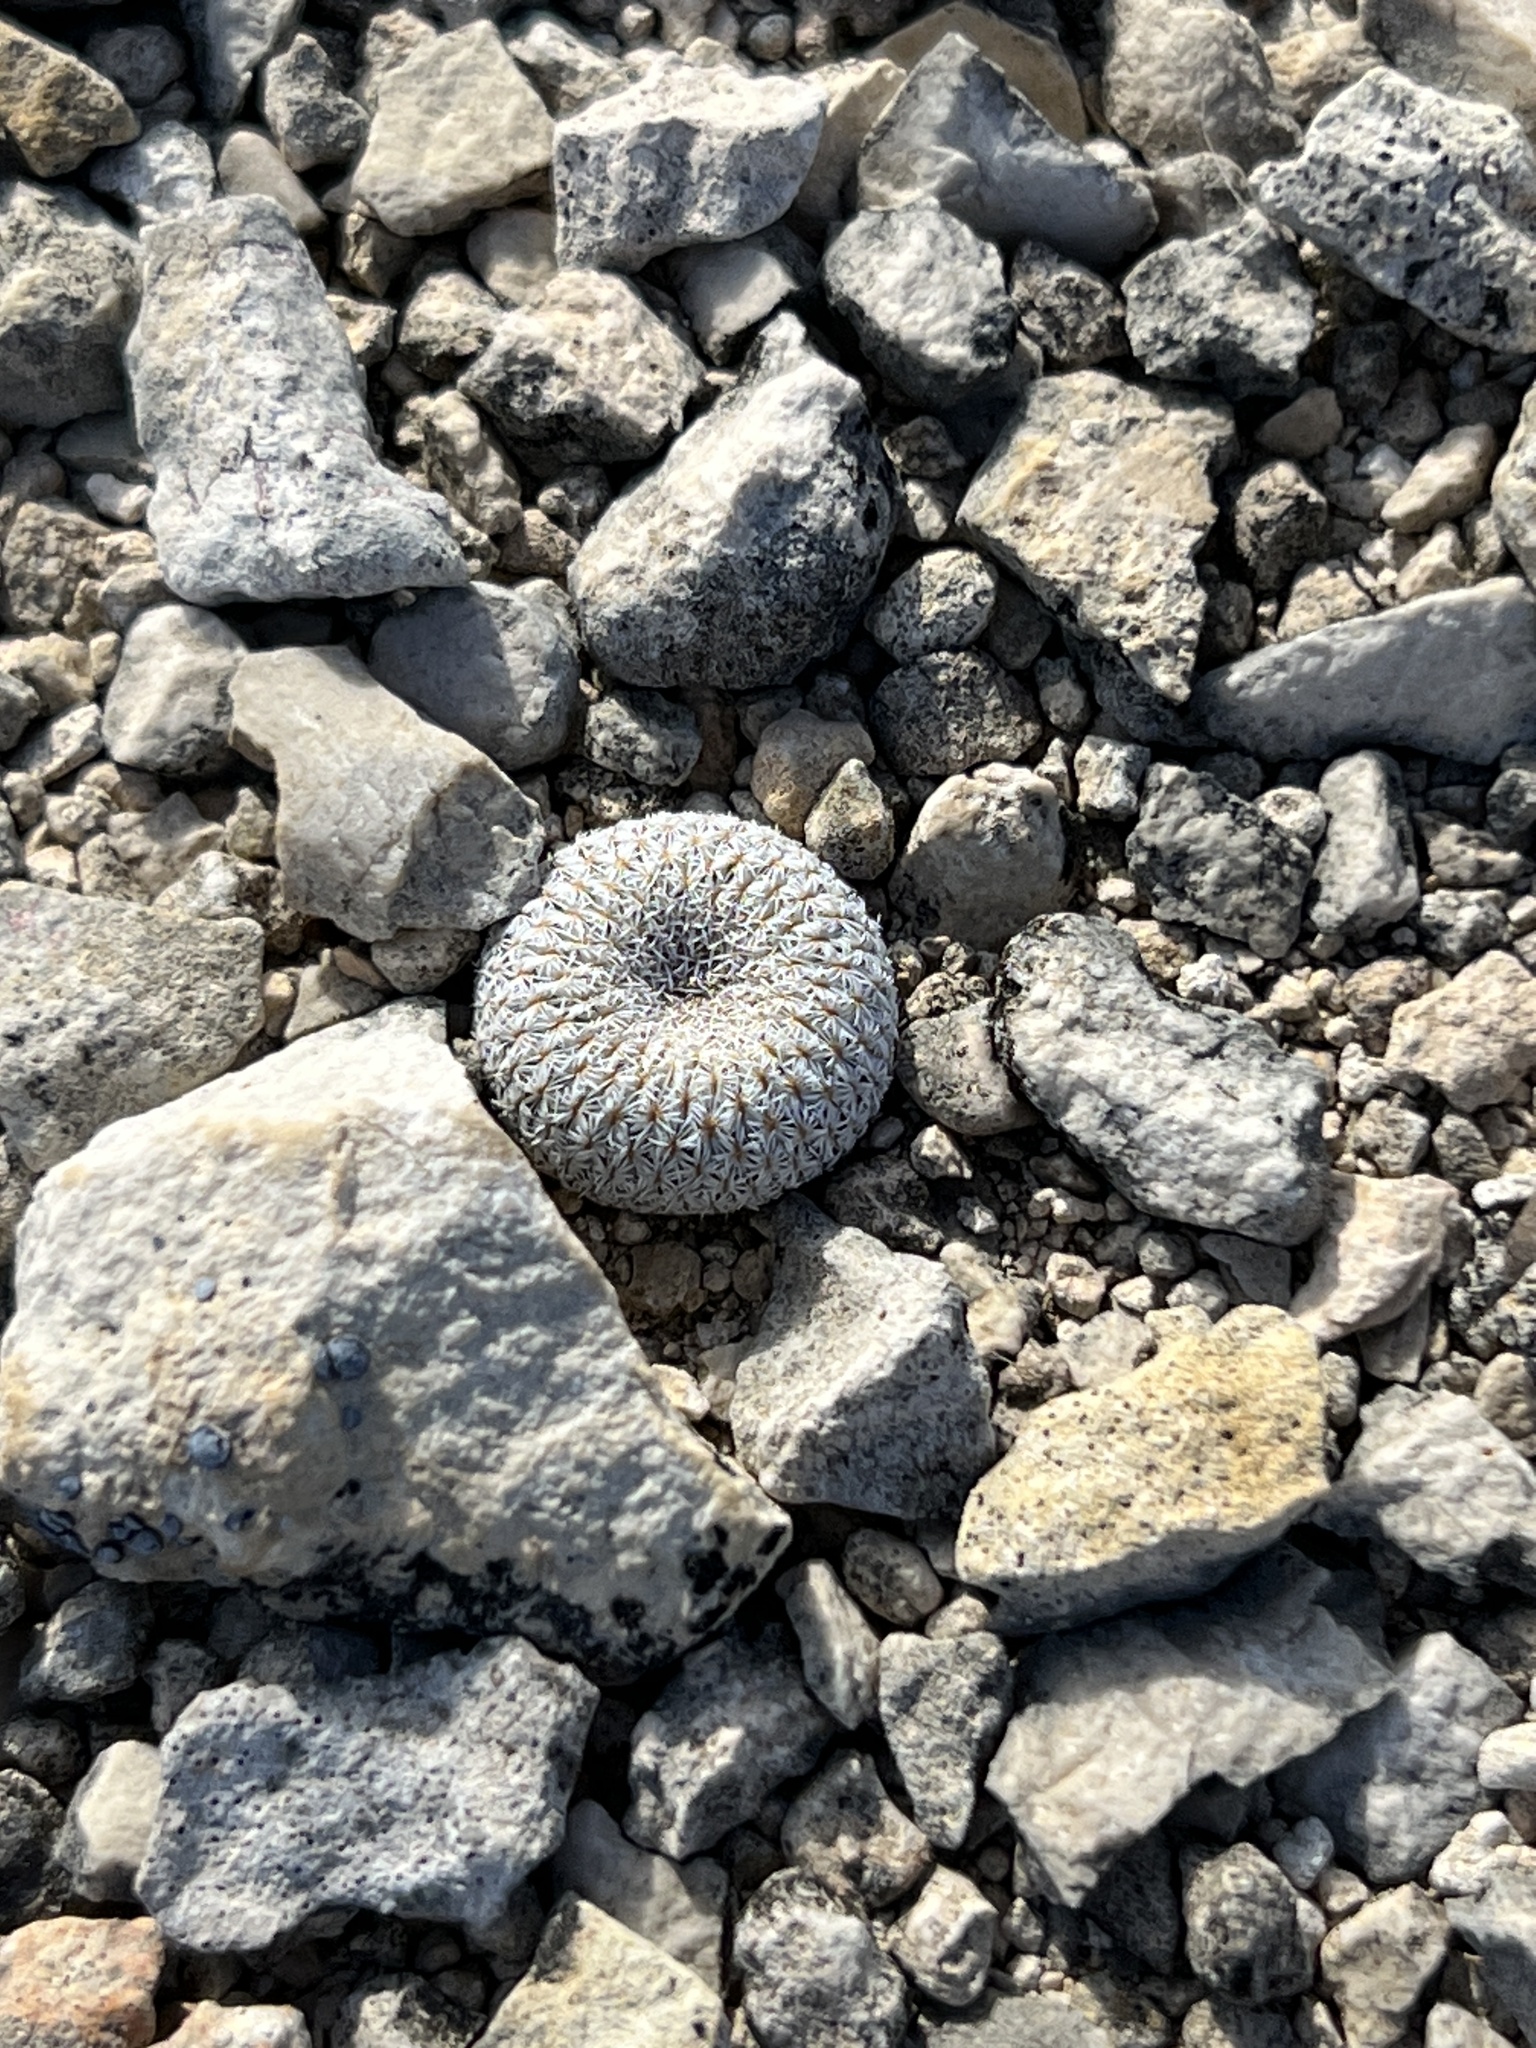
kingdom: Plantae
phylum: Tracheophyta
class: Magnoliopsida
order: Caryophyllales
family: Cactaceae
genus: Epithelantha
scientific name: Epithelantha micromeris
